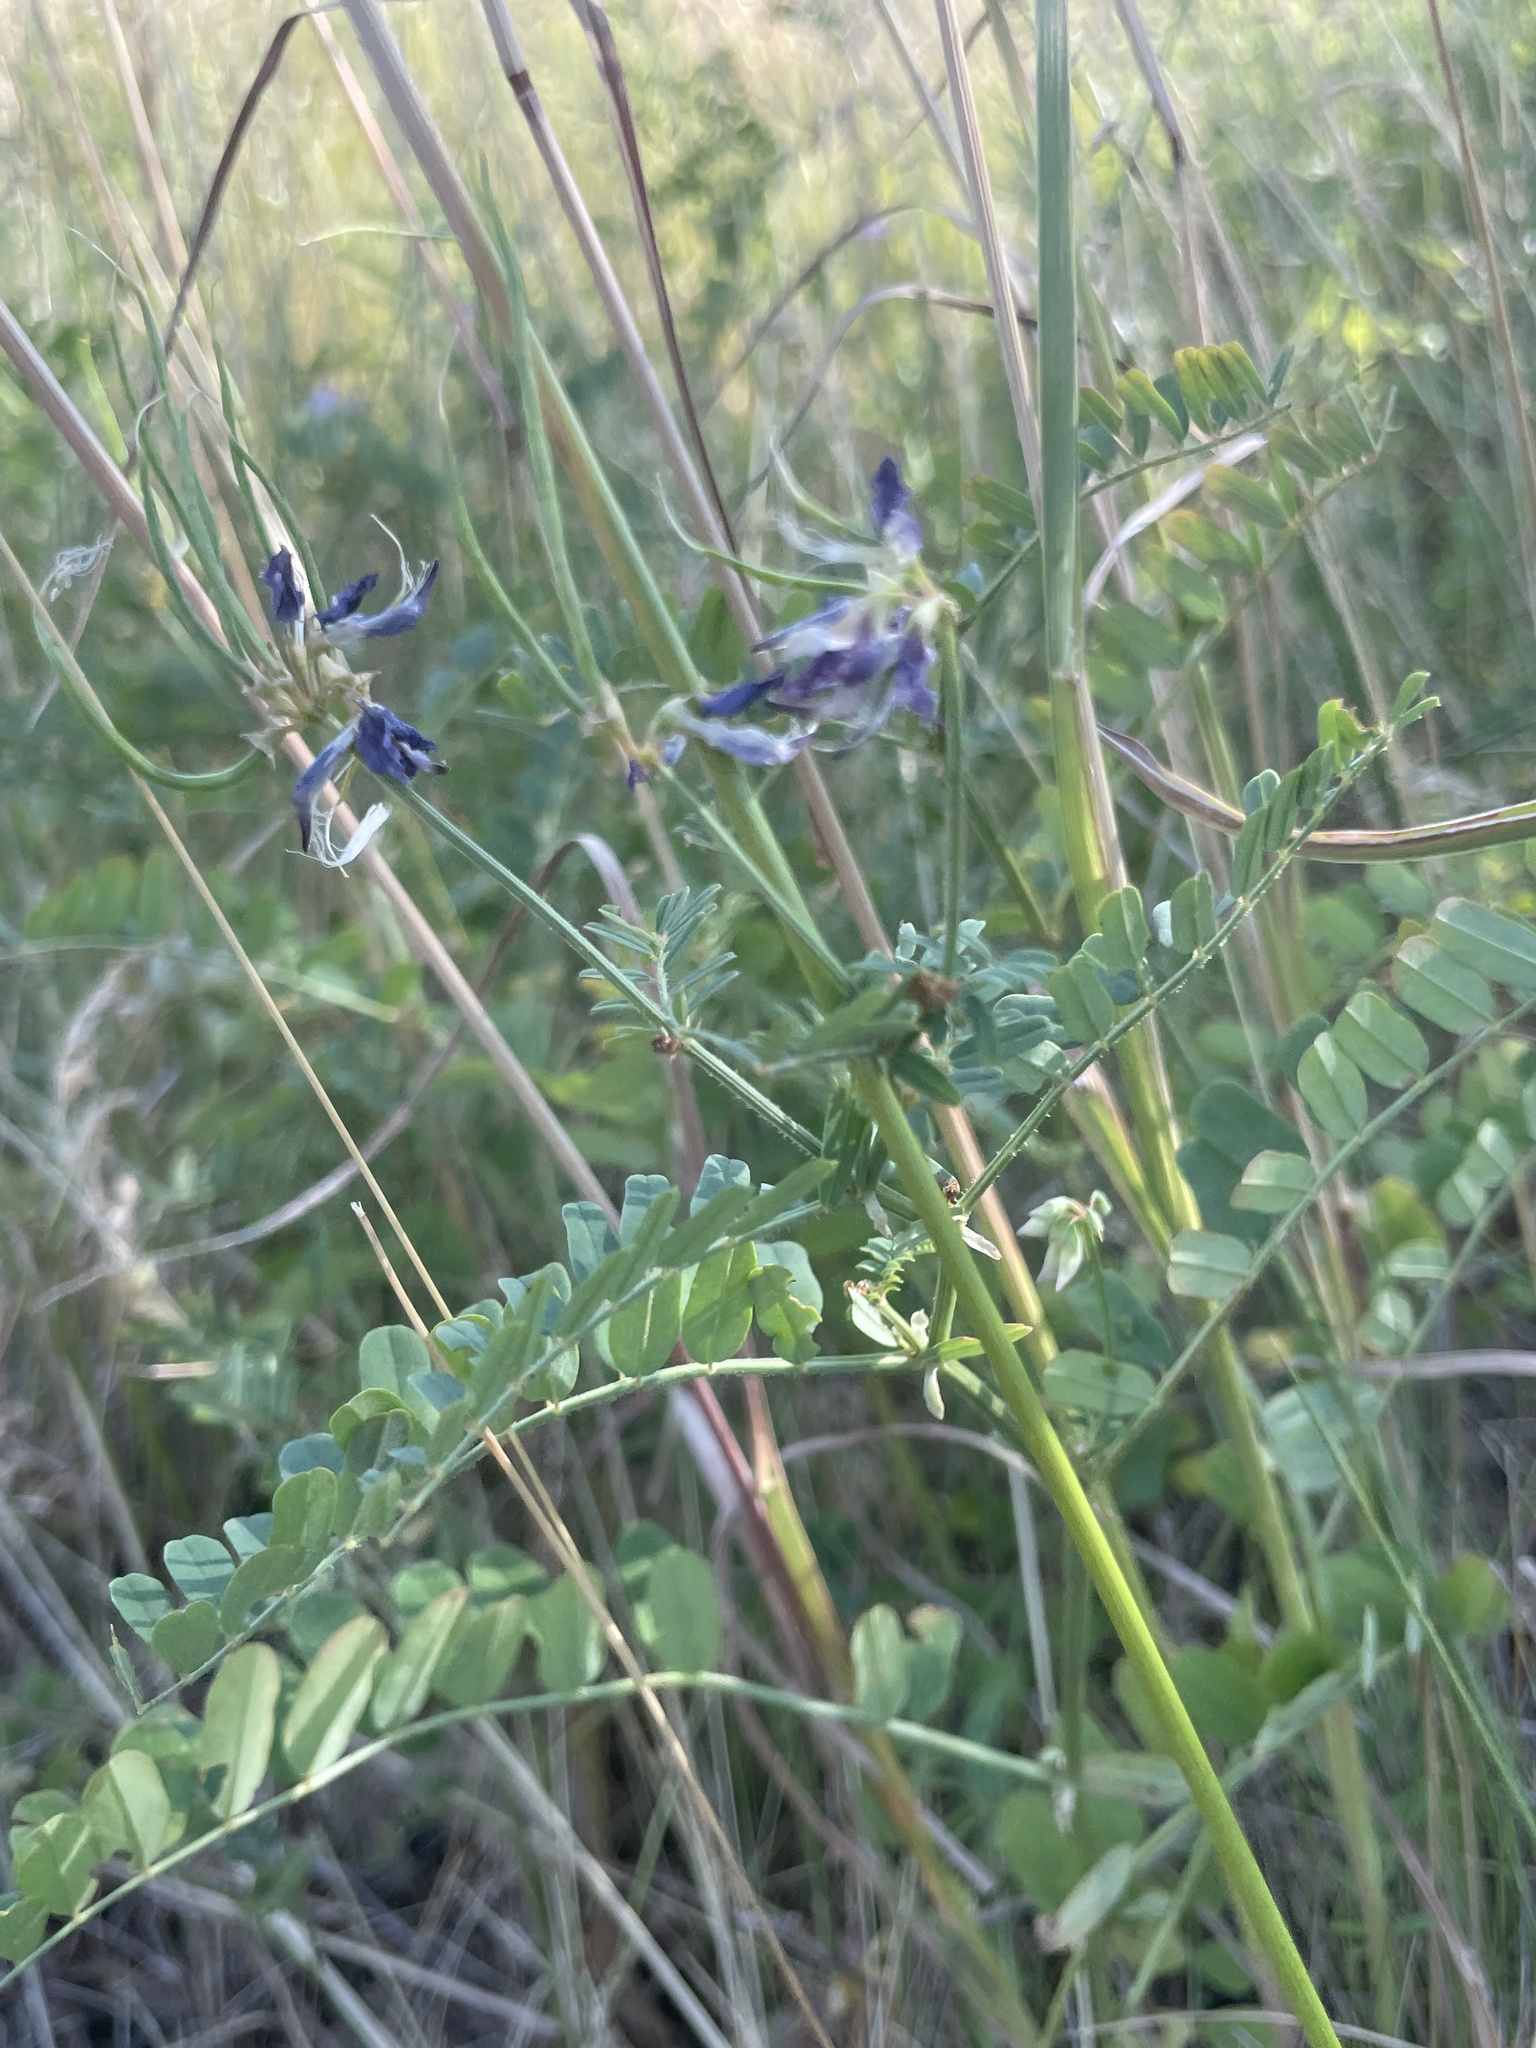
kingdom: Plantae
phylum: Tracheophyta
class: Magnoliopsida
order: Fabales
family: Fabaceae
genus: Coronilla
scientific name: Coronilla varia
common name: Crownvetch
